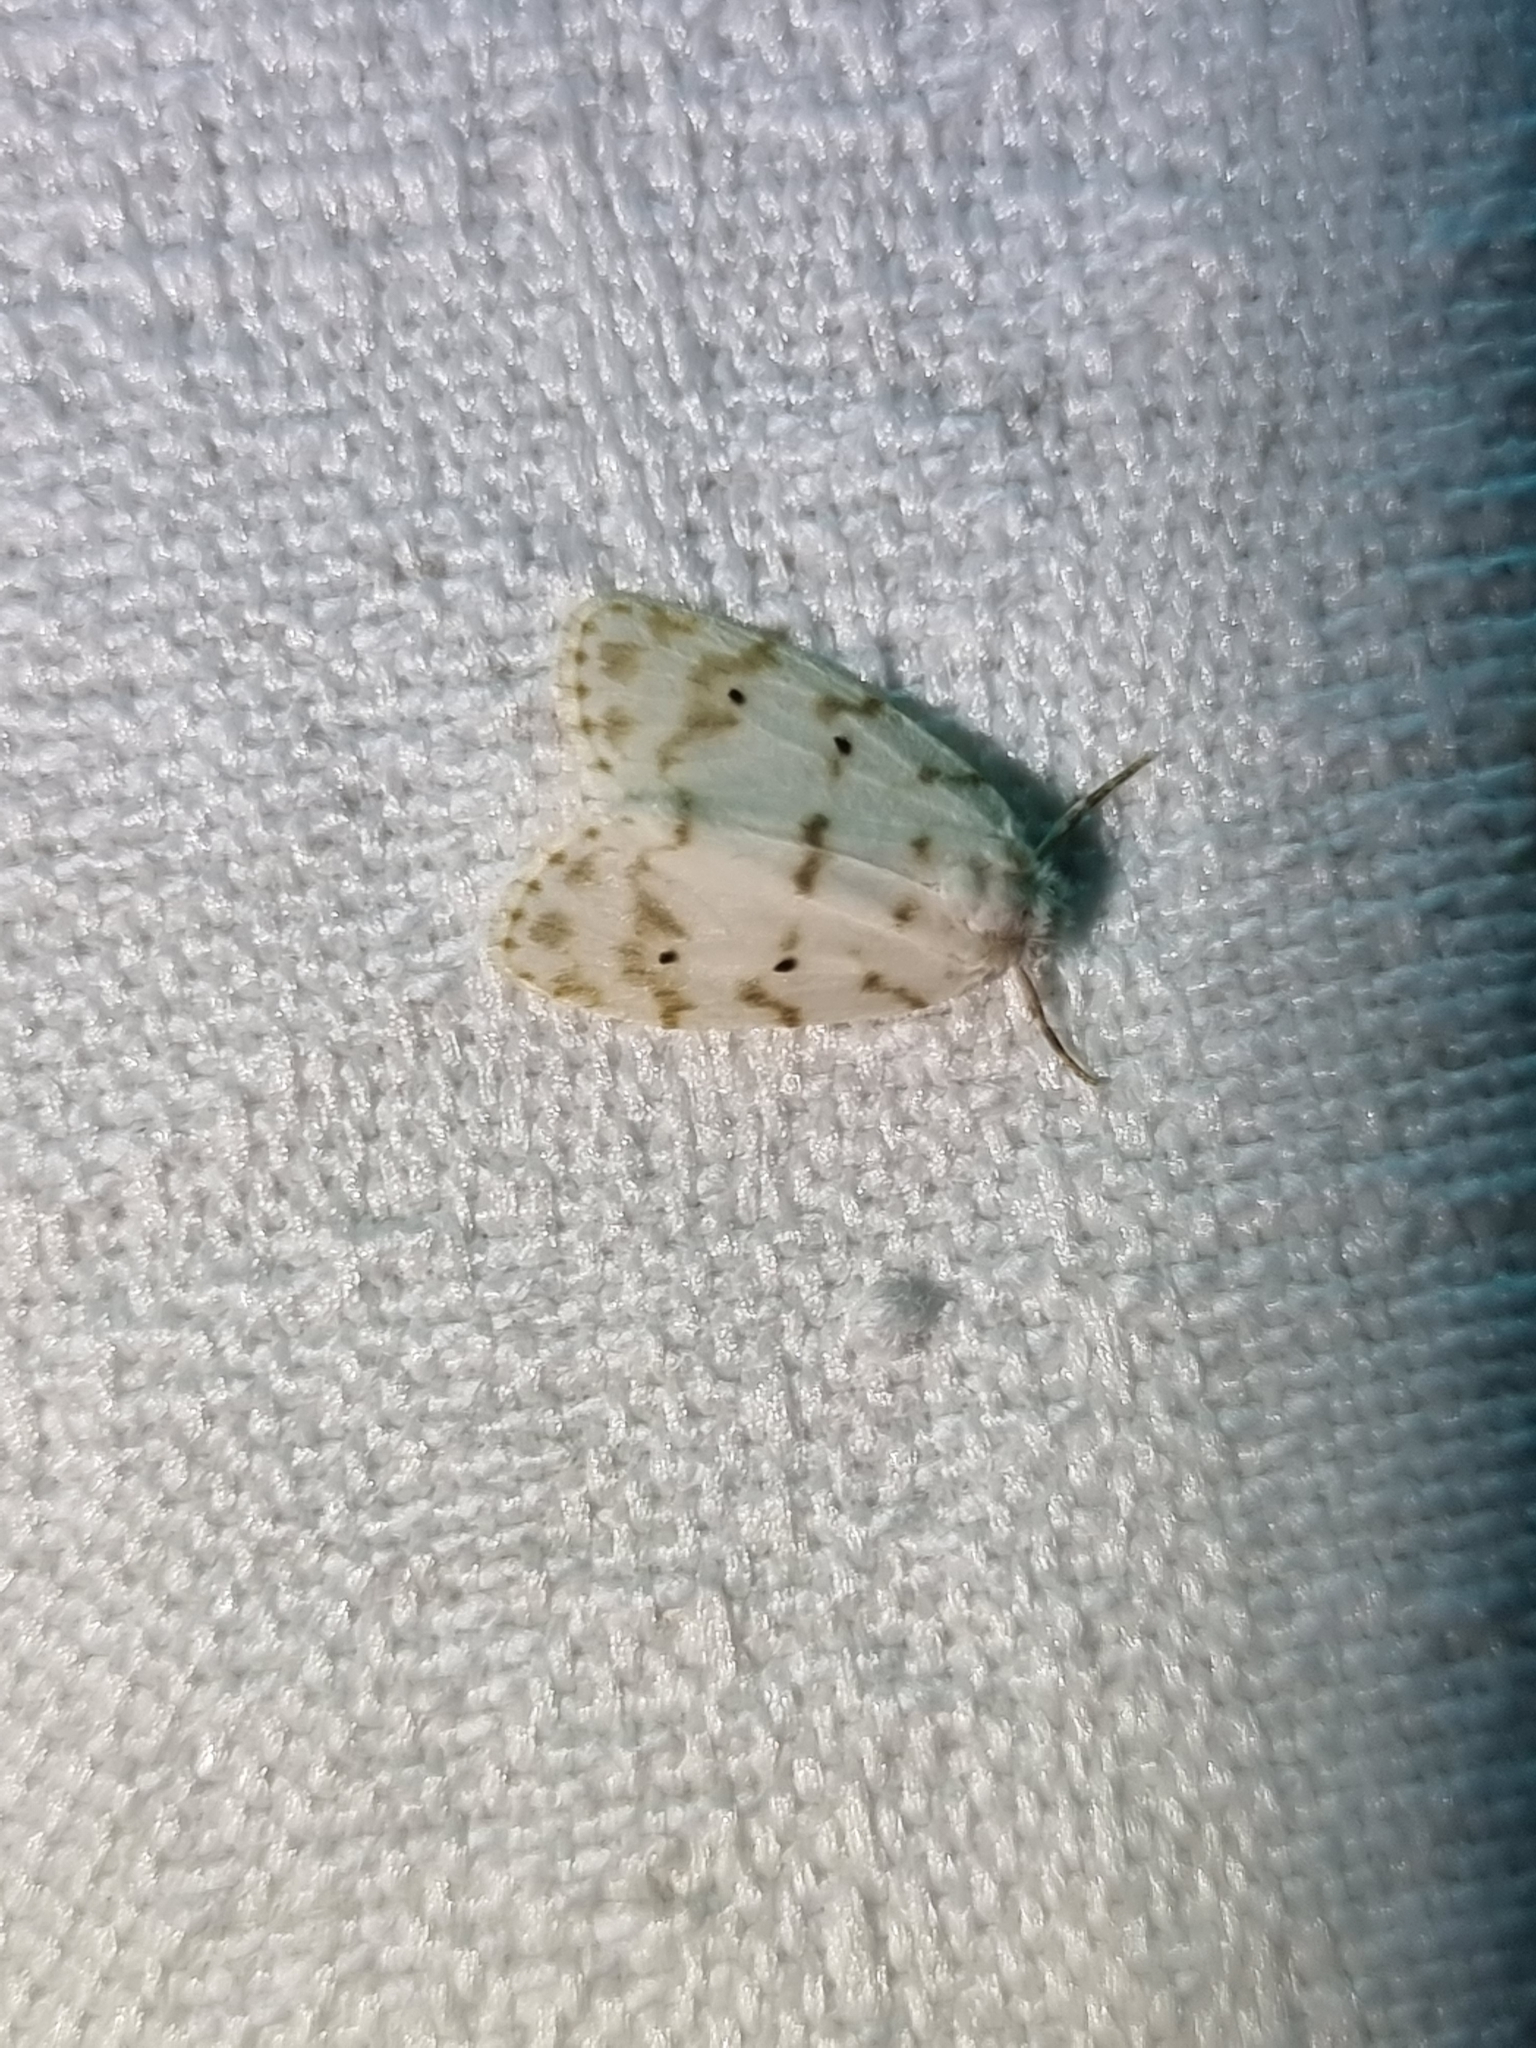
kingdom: Animalia
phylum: Arthropoda
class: Insecta
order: Lepidoptera
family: Erebidae
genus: Schistophleps
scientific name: Schistophleps albida
